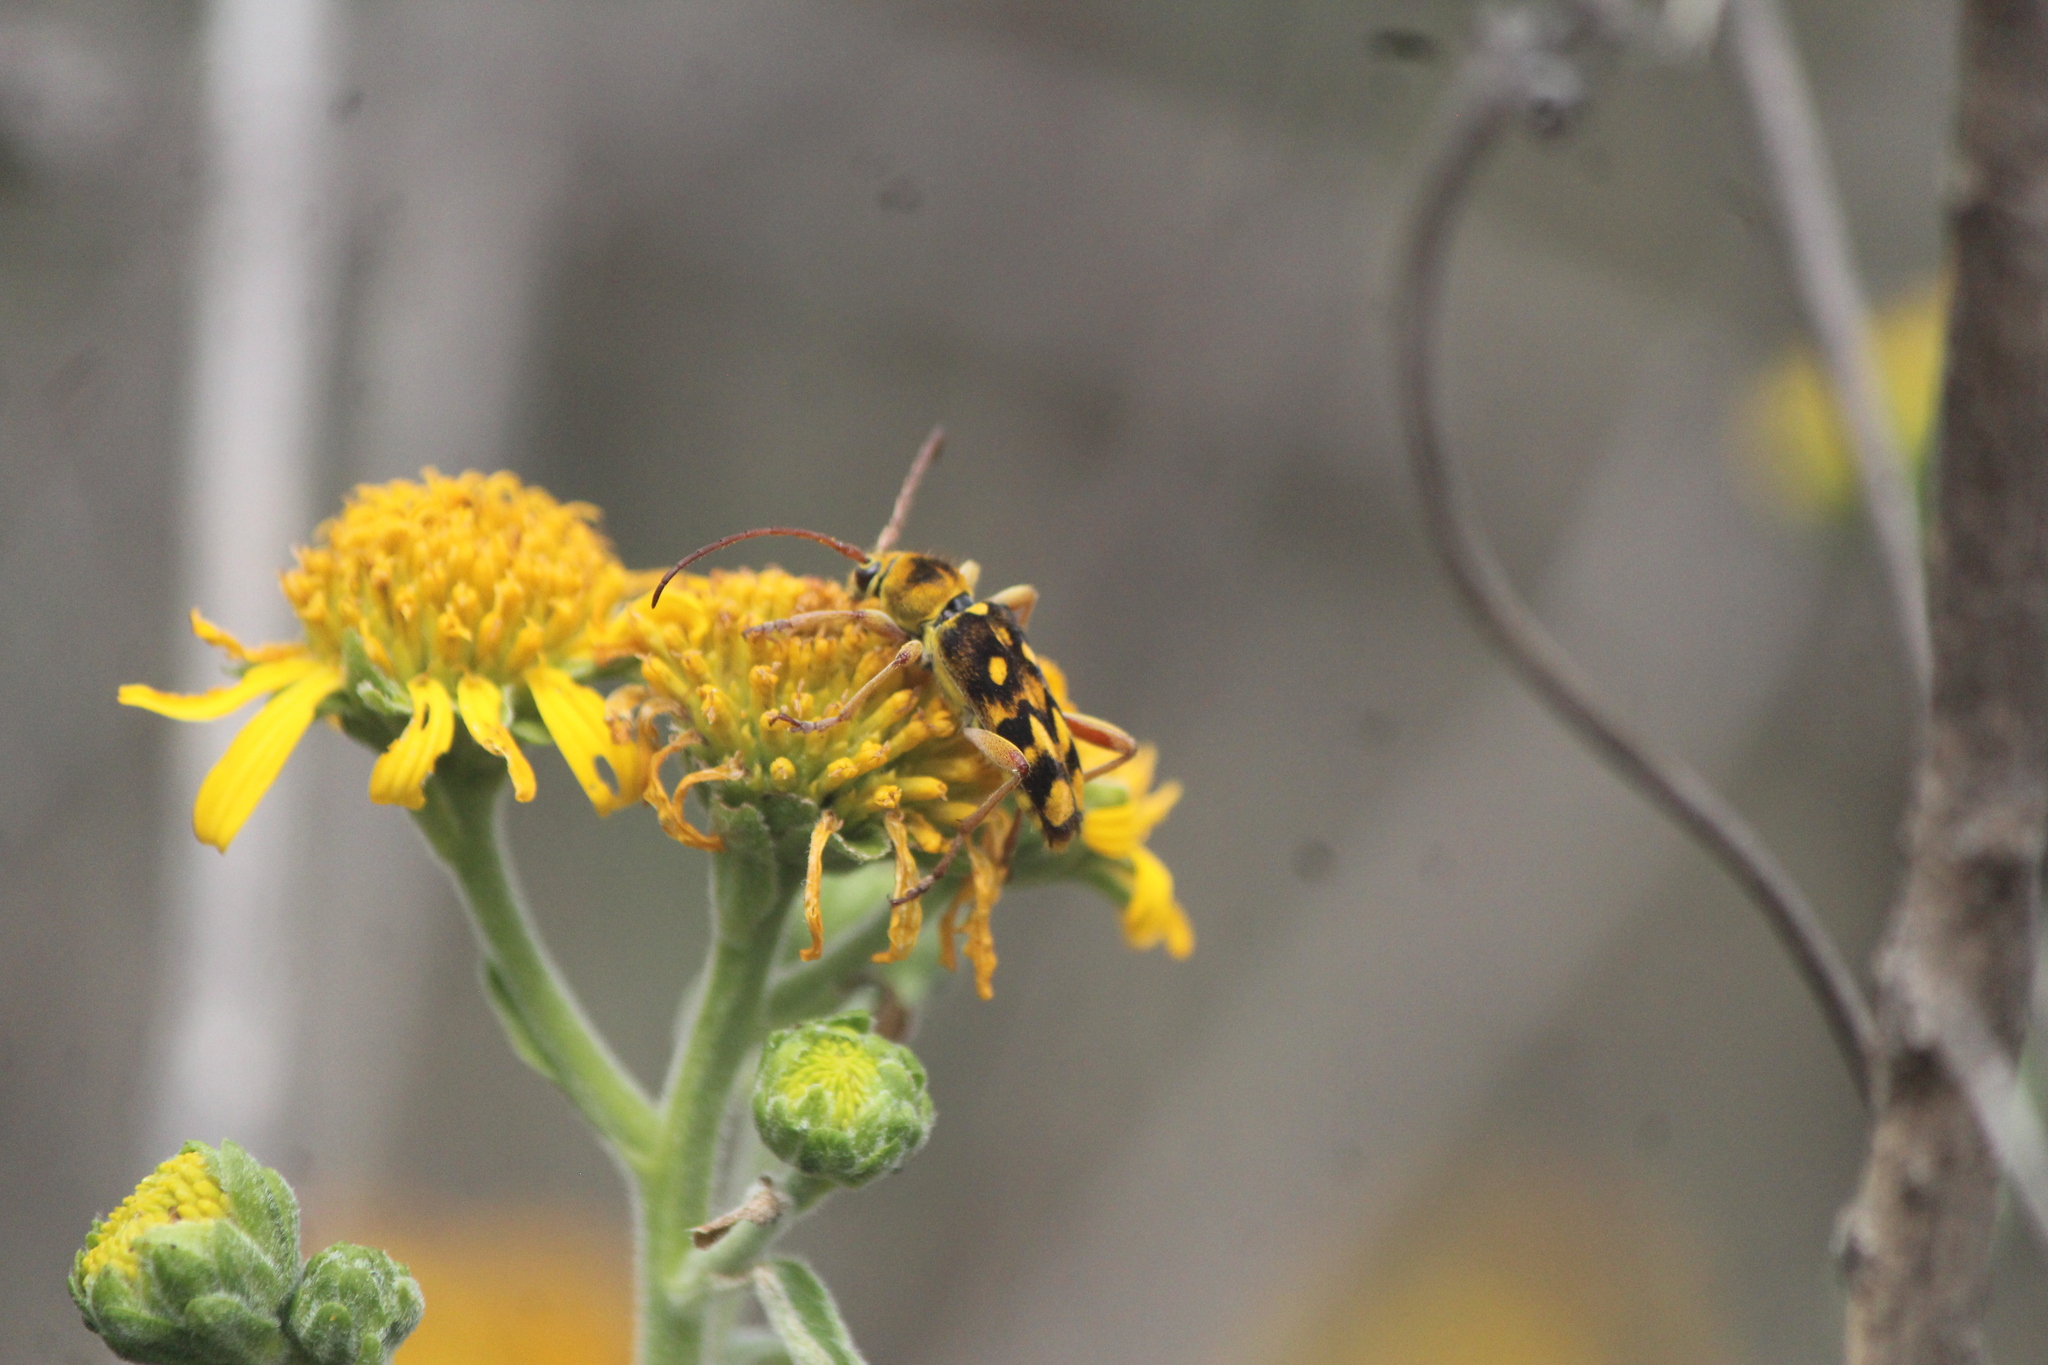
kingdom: Animalia
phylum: Arthropoda
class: Insecta
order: Coleoptera
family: Cerambycidae
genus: Ochraethes
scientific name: Ochraethes sommeri
